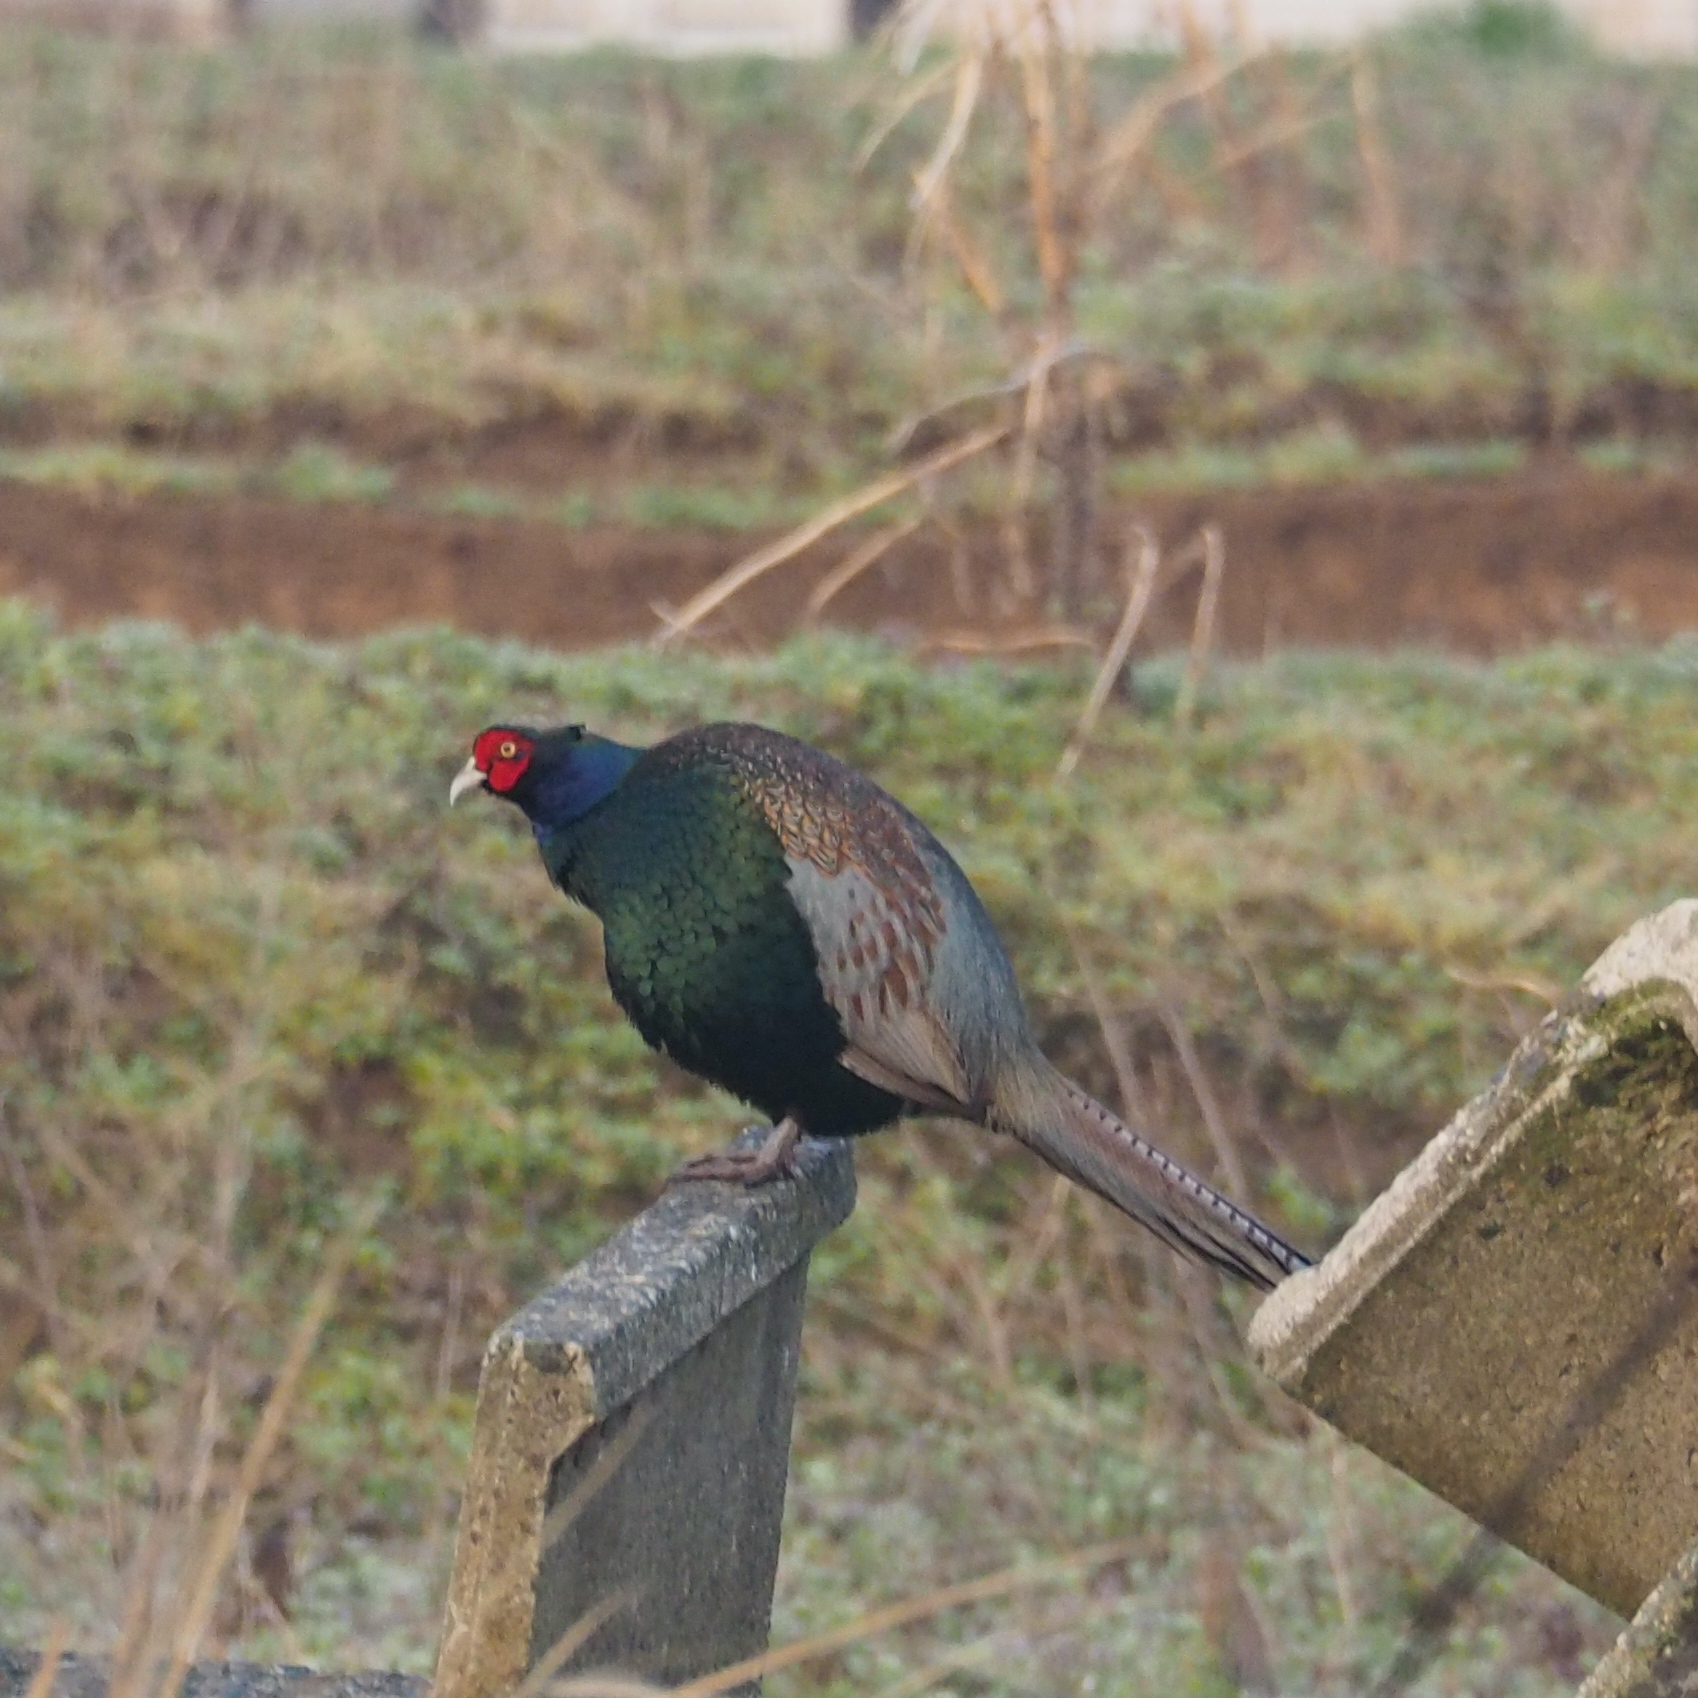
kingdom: Animalia
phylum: Chordata
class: Aves
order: Galliformes
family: Phasianidae
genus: Phasianus
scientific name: Phasianus versicolor
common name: Green pheasant
